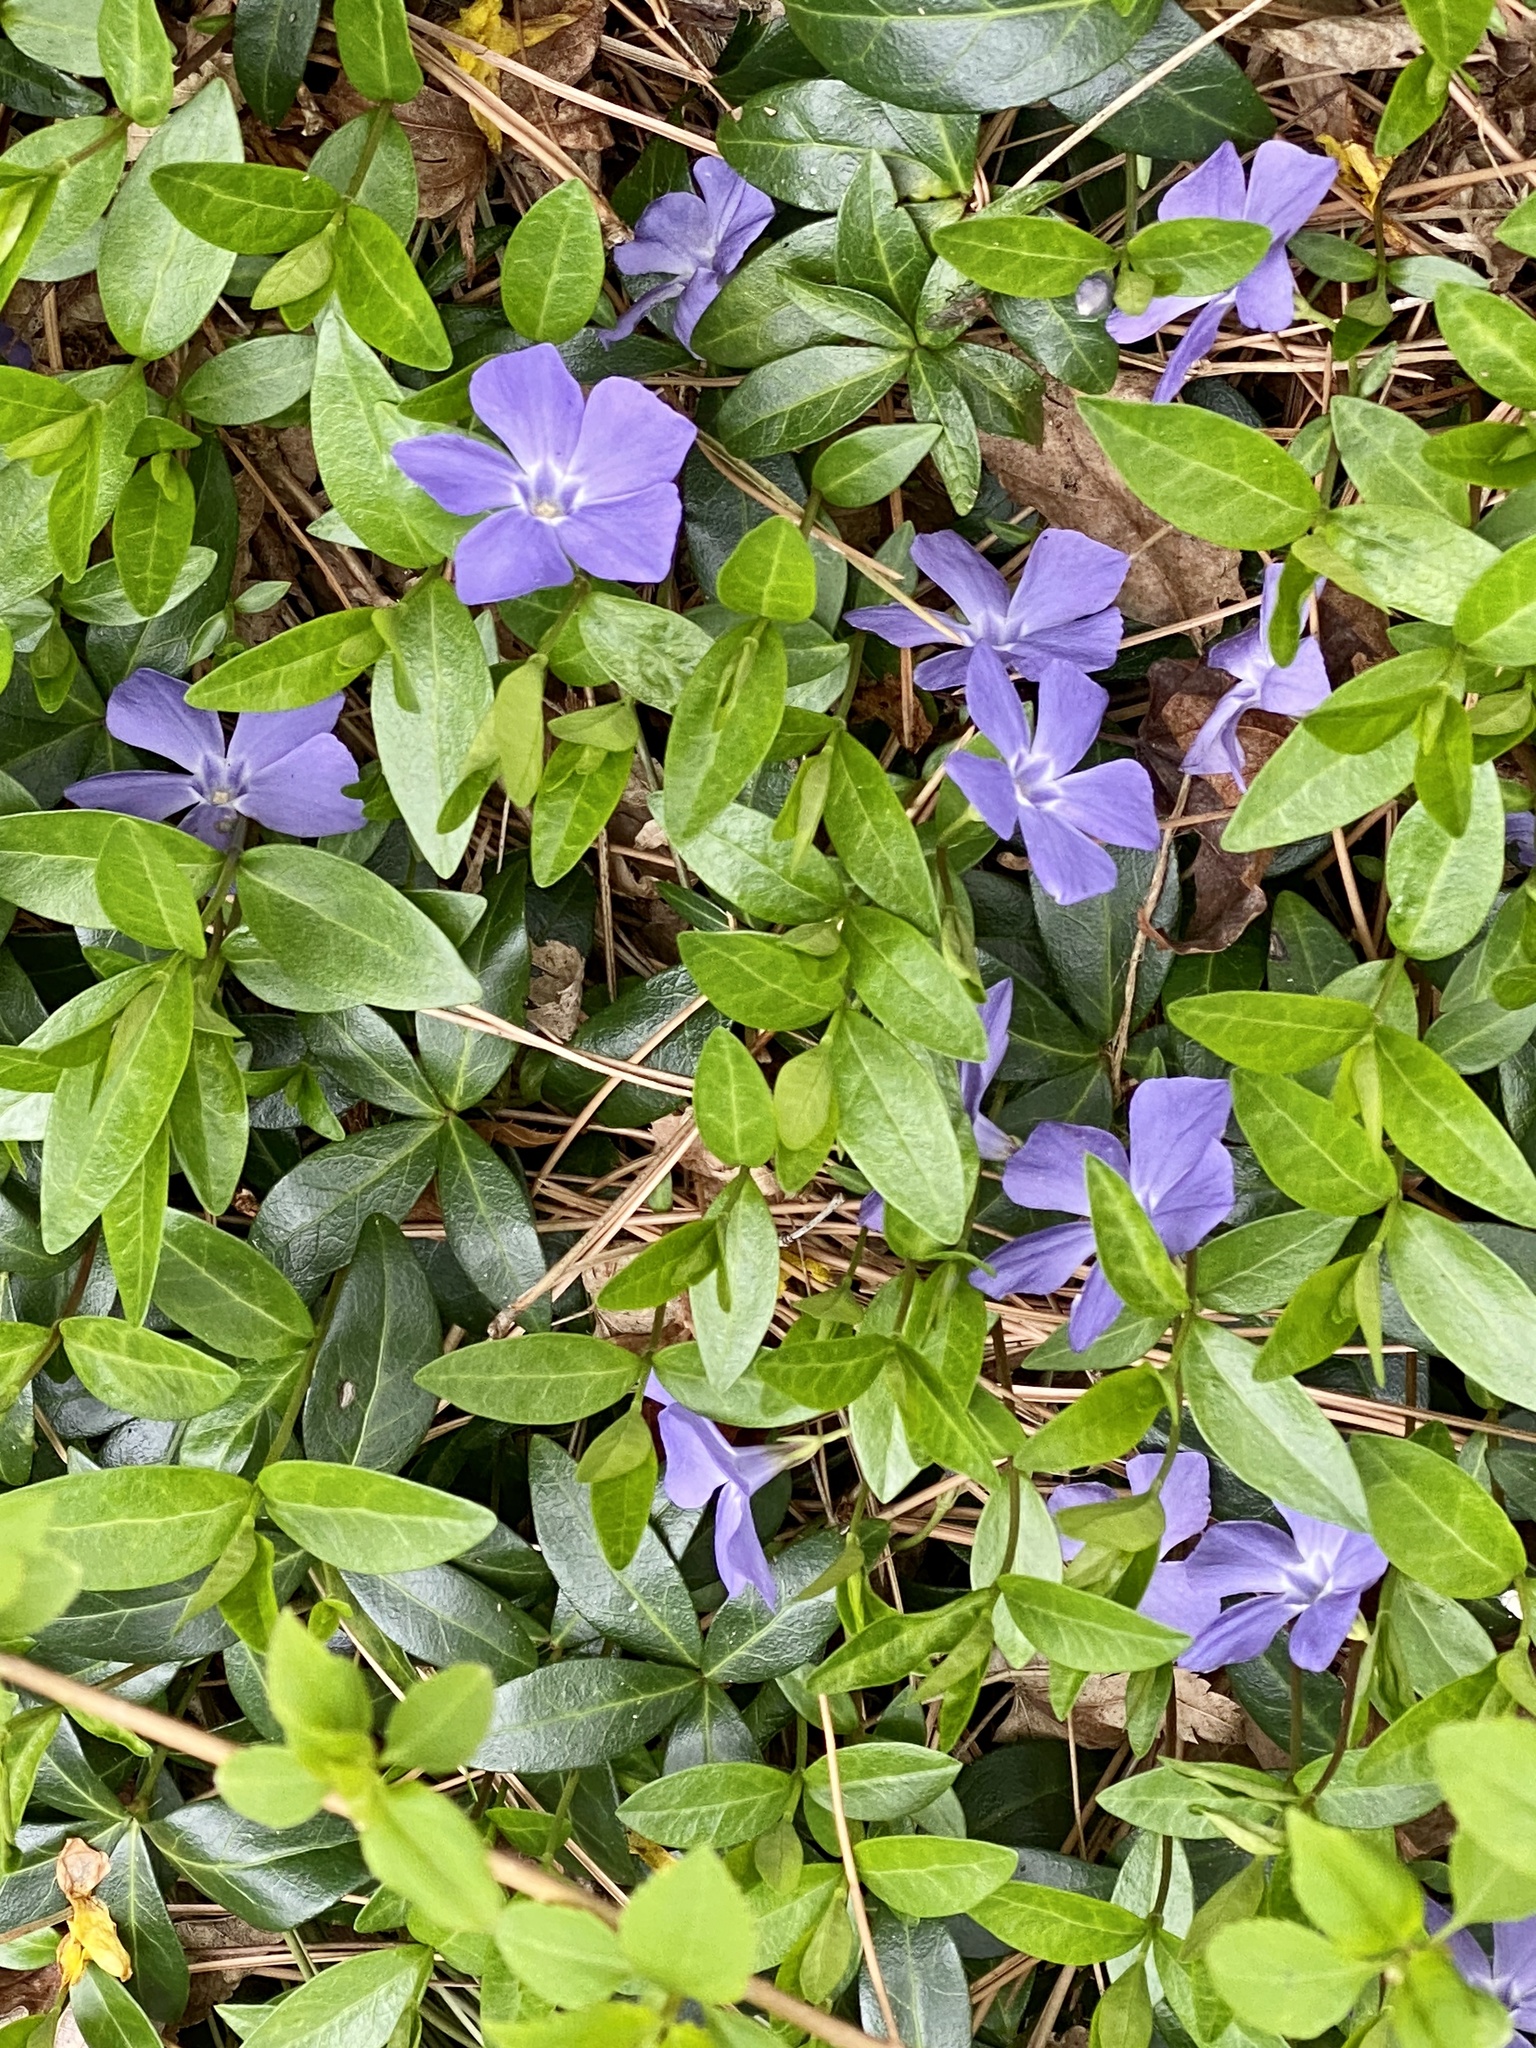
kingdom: Plantae
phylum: Tracheophyta
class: Magnoliopsida
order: Gentianales
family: Apocynaceae
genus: Vinca
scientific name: Vinca minor
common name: Lesser periwinkle
